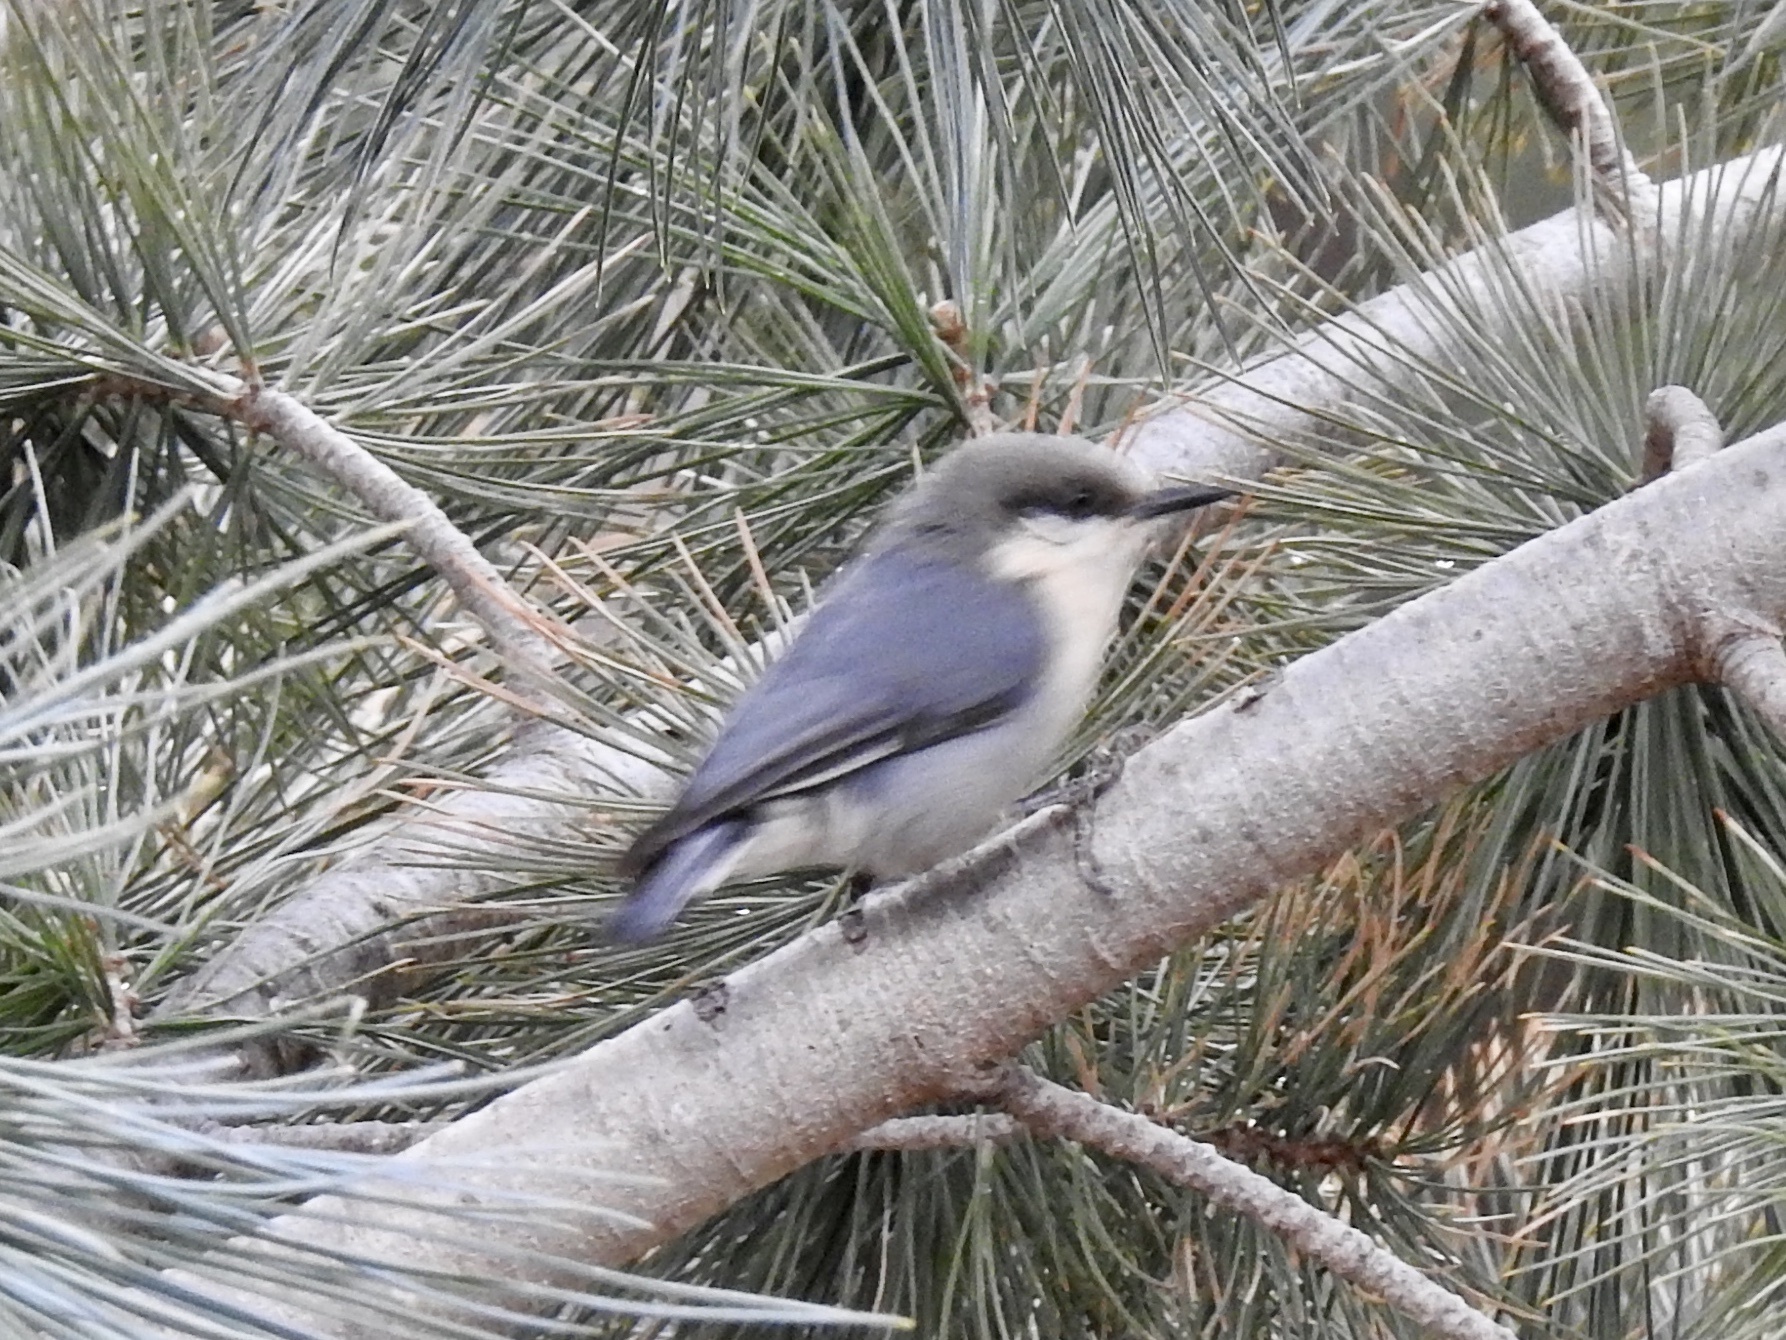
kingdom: Animalia
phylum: Chordata
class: Aves
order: Passeriformes
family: Sittidae
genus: Sitta
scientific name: Sitta pygmaea
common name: Pygmy nuthatch
